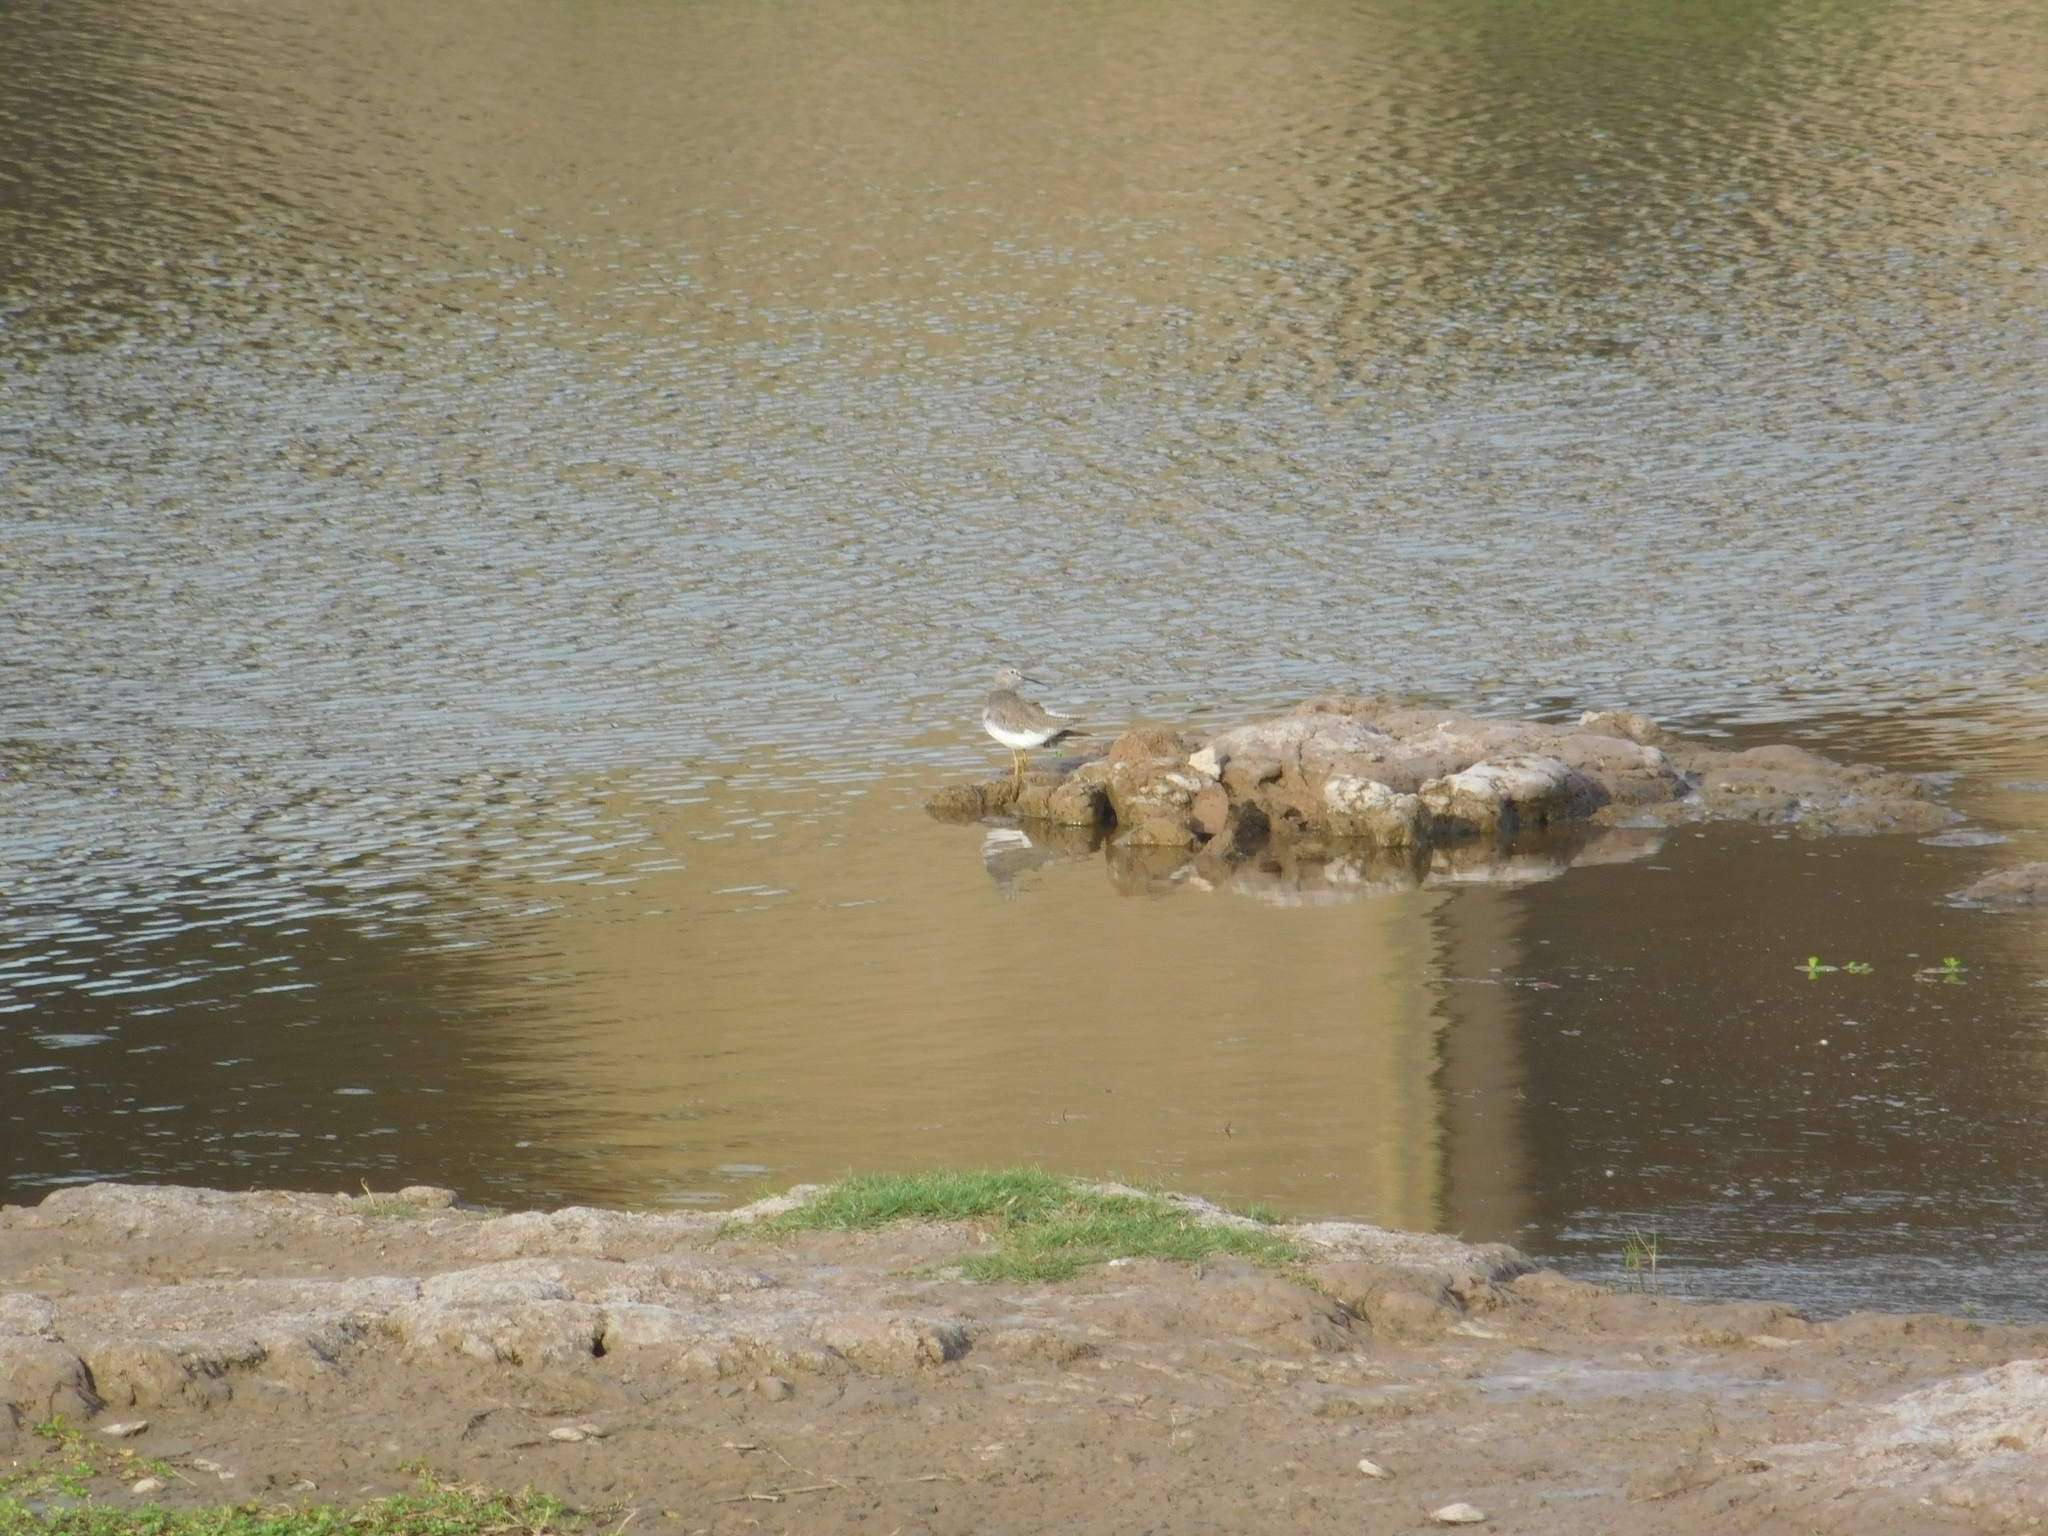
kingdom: Animalia
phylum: Chordata
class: Aves
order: Charadriiformes
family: Scolopacidae
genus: Tringa
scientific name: Tringa flavipes
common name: Lesser yellowlegs
